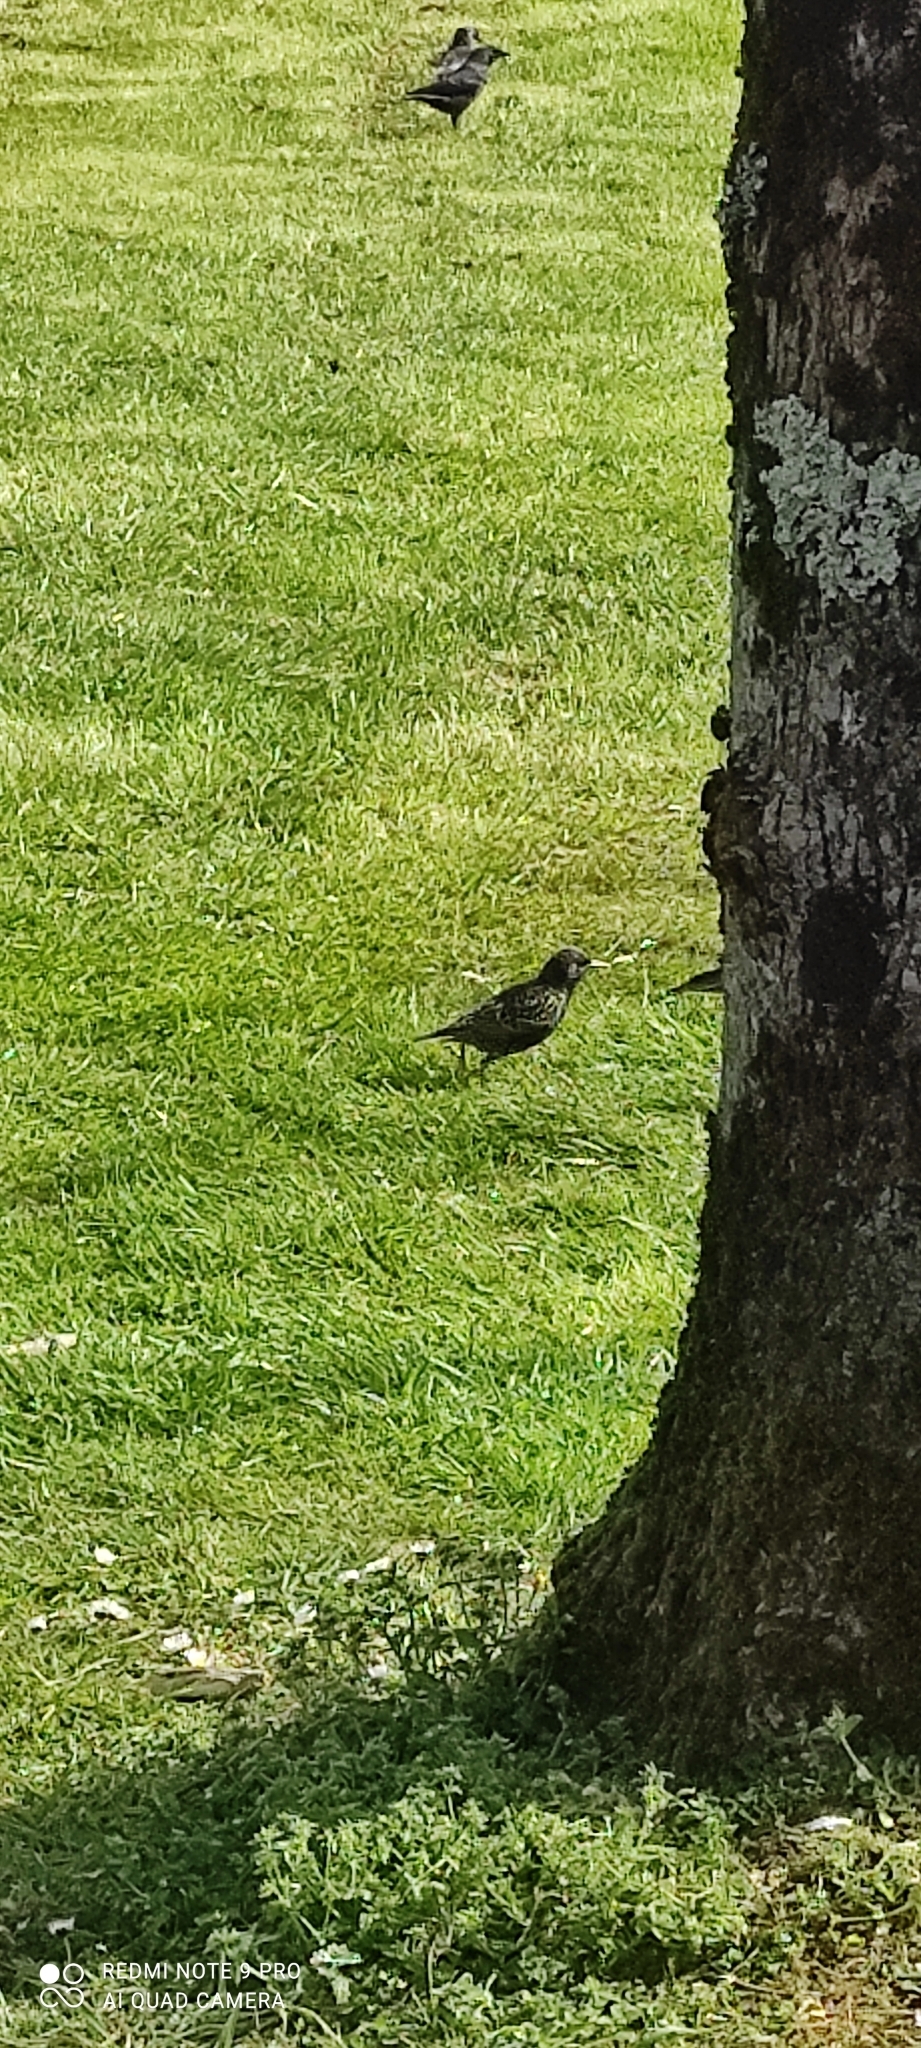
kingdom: Animalia
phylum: Chordata
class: Aves
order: Passeriformes
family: Sturnidae
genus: Sturnus
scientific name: Sturnus vulgaris
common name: Common starling
